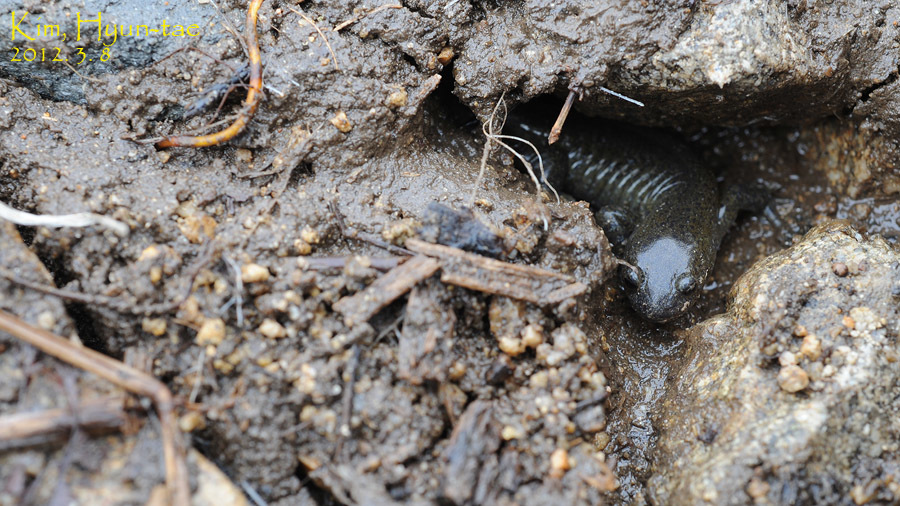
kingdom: Animalia
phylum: Chordata
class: Amphibia
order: Caudata
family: Hynobiidae
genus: Hynobius
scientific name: Hynobius leechii
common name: Gensan salamander
